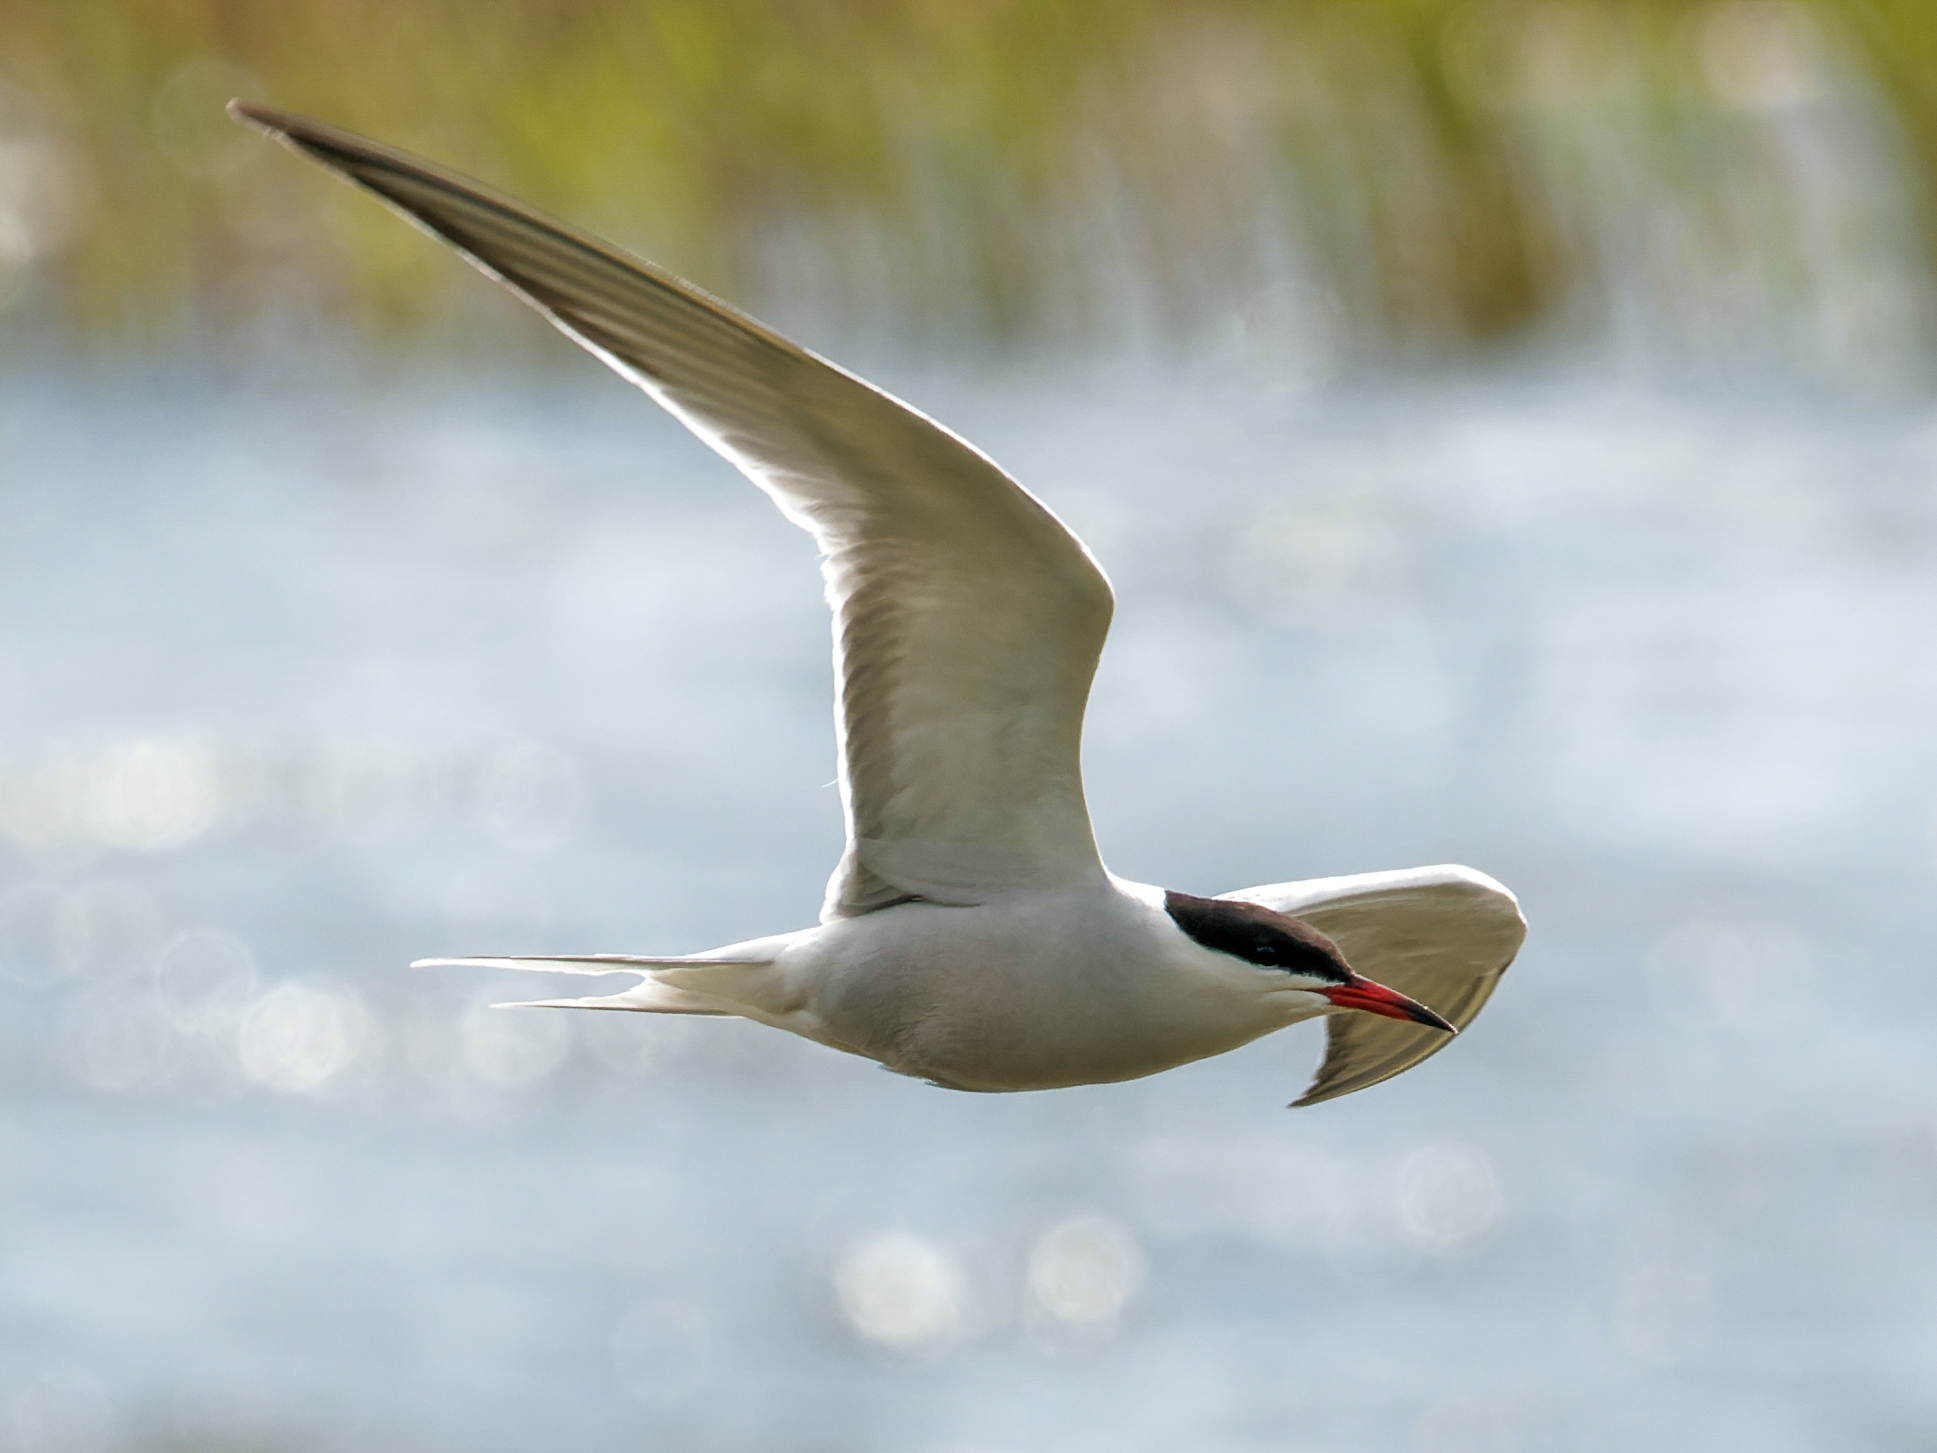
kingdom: Animalia
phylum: Chordata
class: Aves
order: Charadriiformes
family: Laridae
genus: Sterna
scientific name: Sterna hirundo
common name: Common tern
